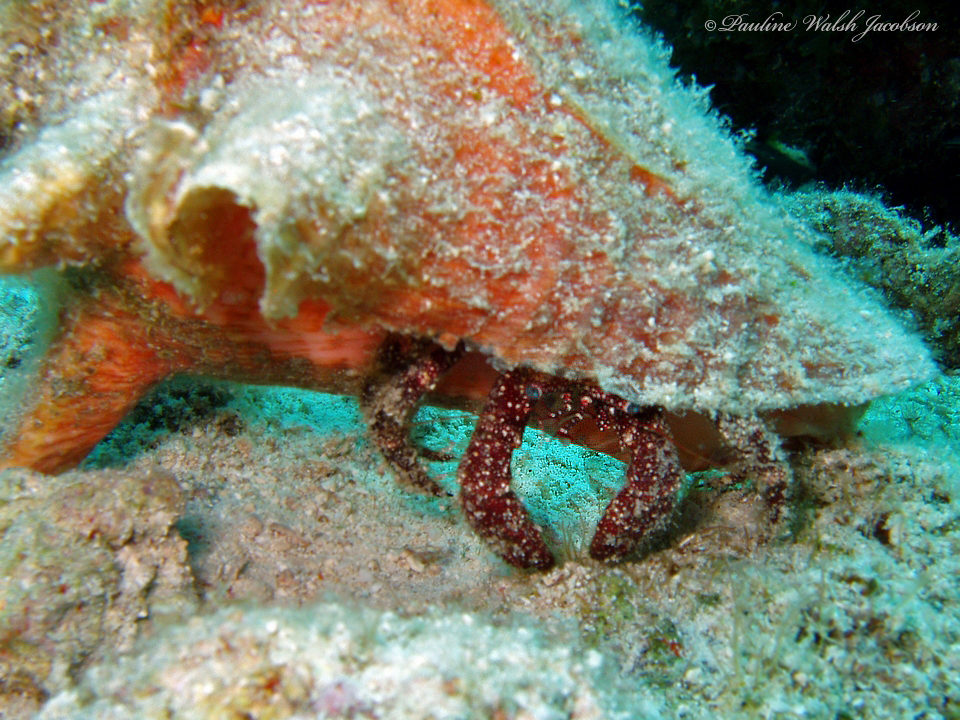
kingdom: Animalia
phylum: Arthropoda
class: Malacostraca
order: Decapoda
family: Diogenidae
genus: Paguristes
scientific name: Paguristes puncticeps
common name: White speckled hermit
